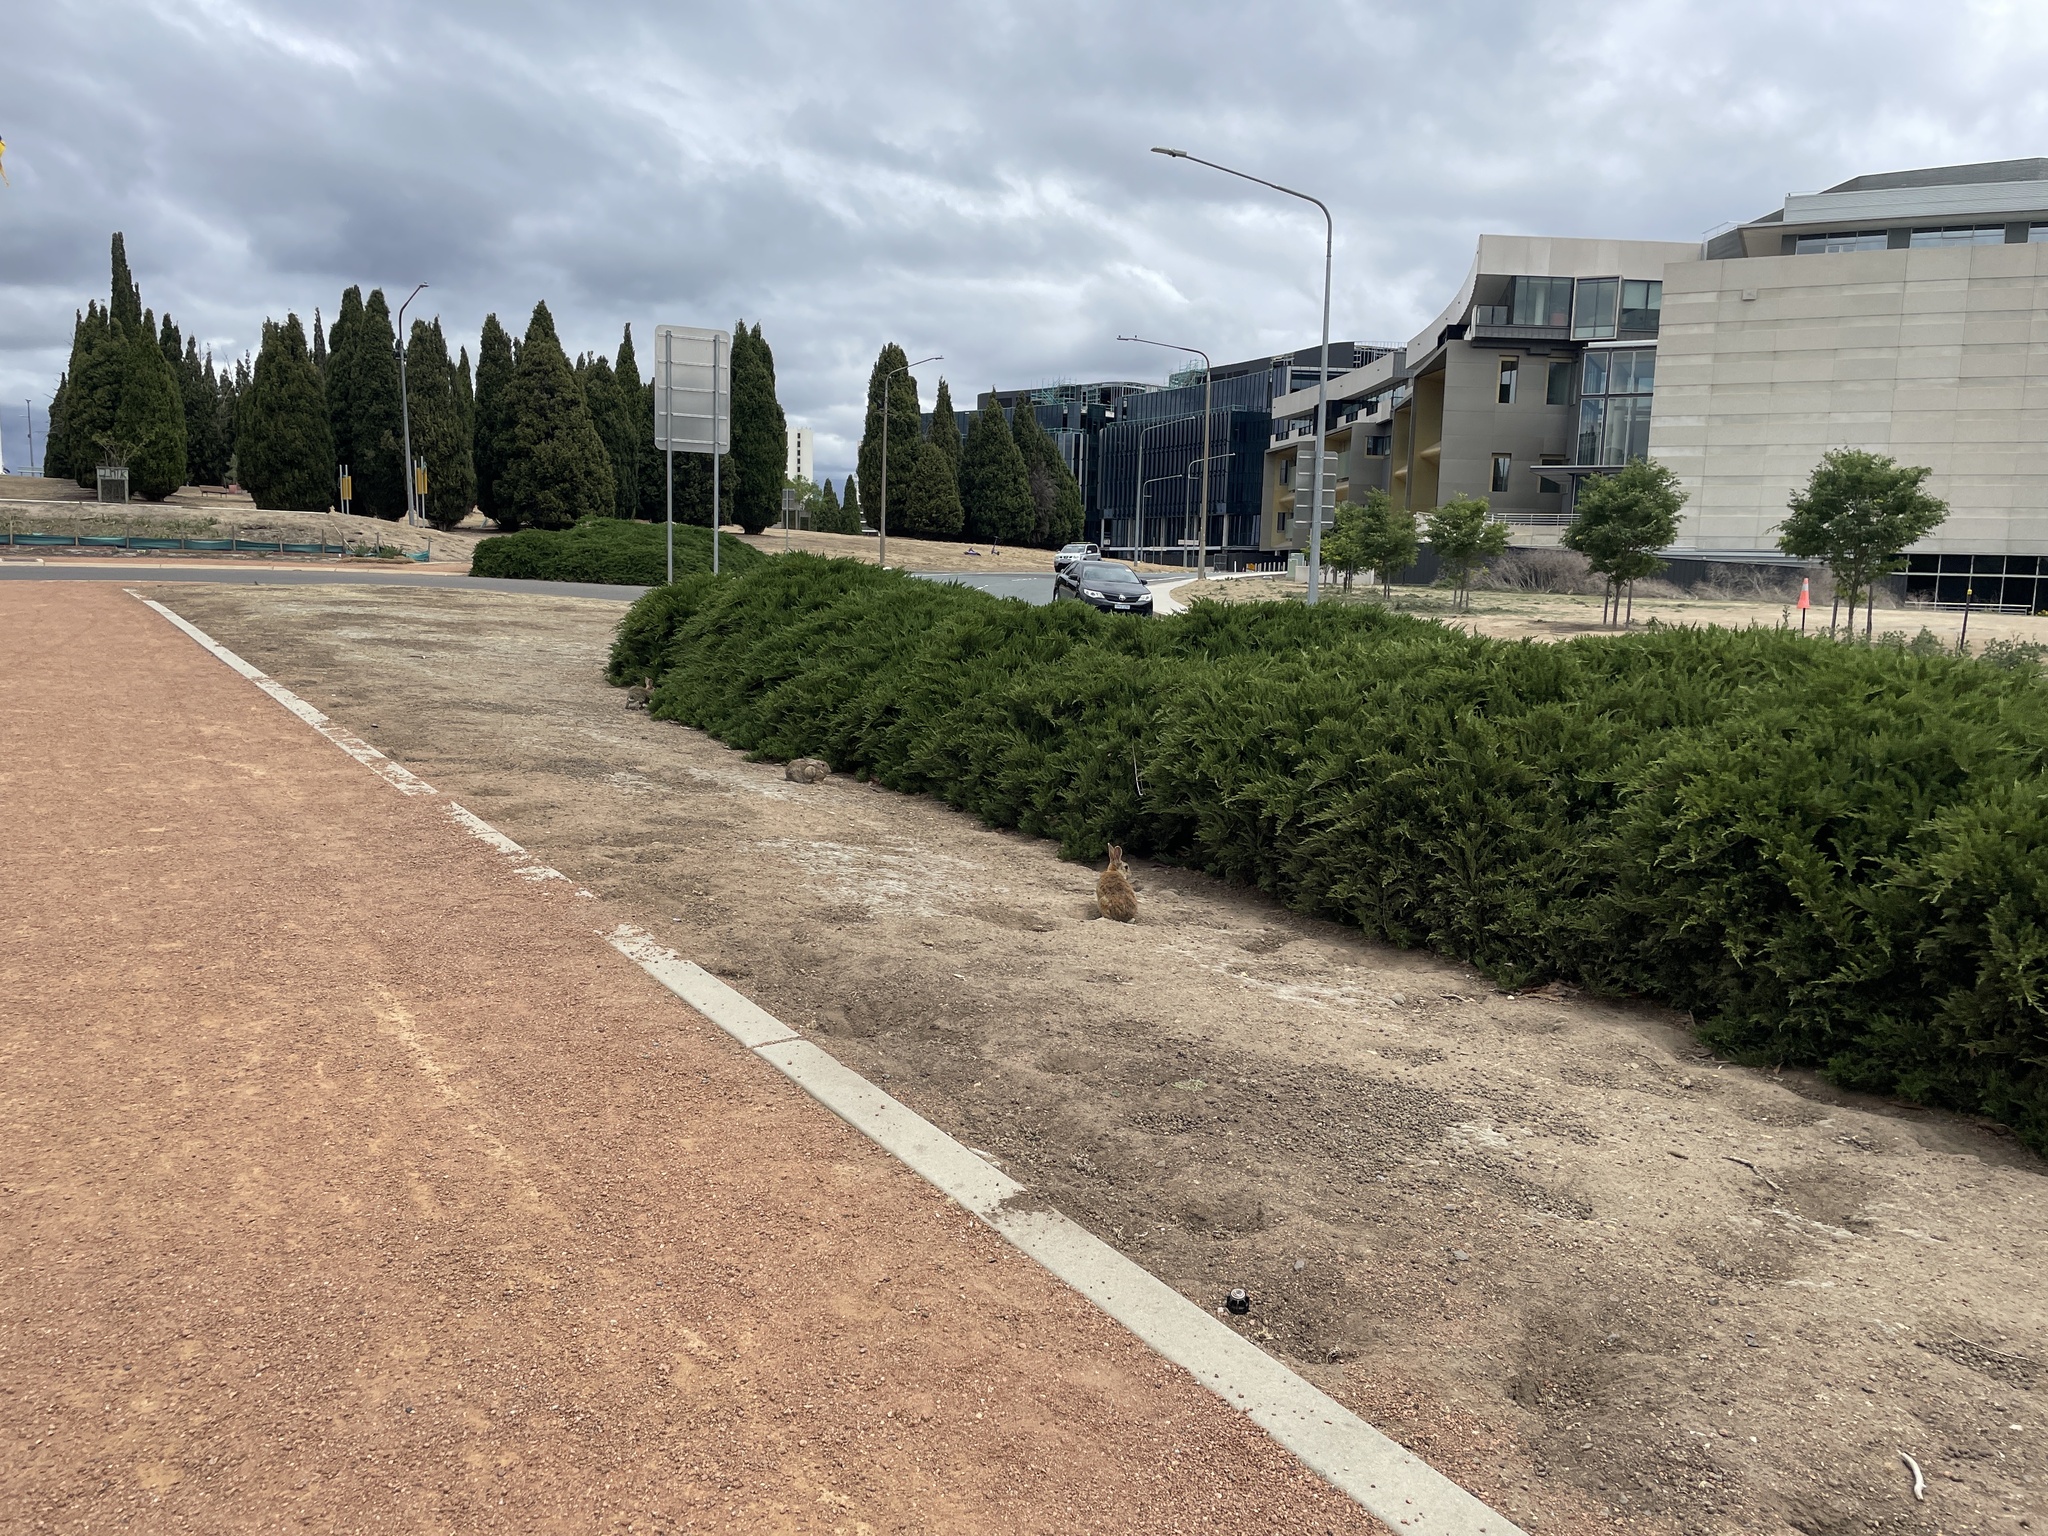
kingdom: Animalia
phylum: Chordata
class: Mammalia
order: Lagomorpha
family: Leporidae
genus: Oryctolagus
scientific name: Oryctolagus cuniculus
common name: European rabbit
